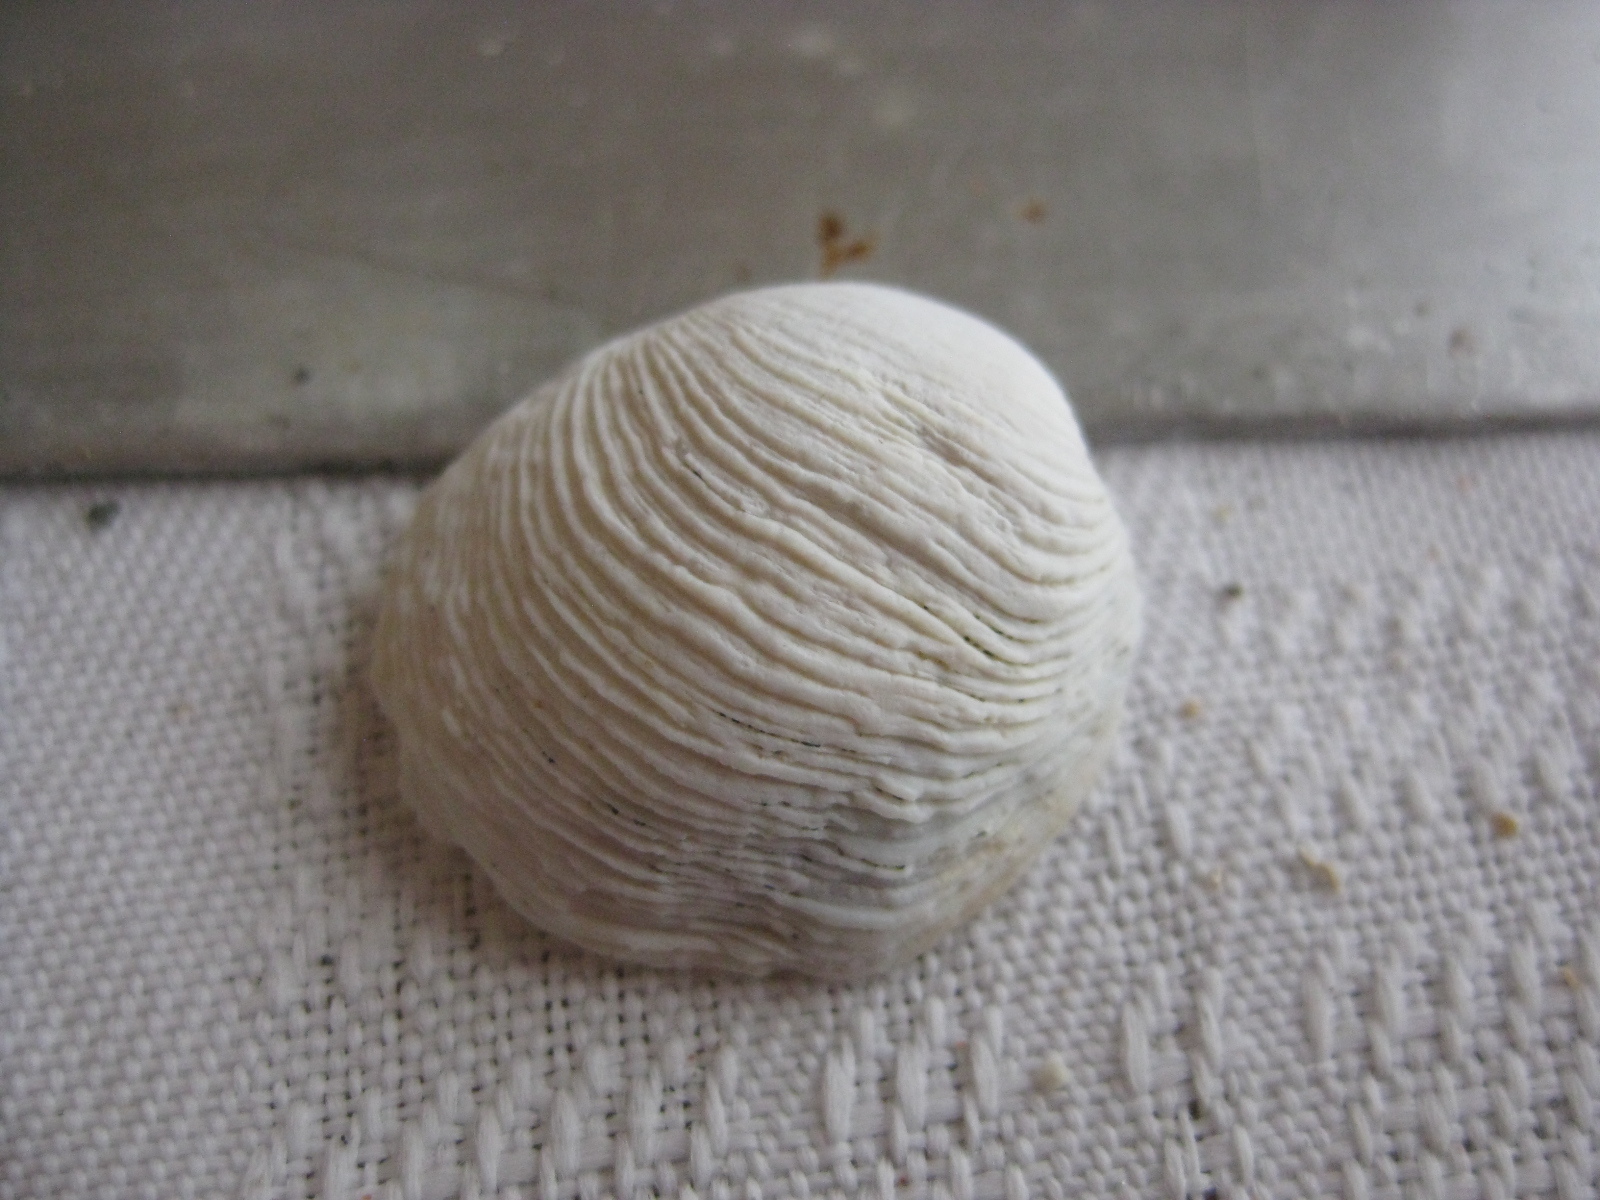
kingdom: Animalia
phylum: Mollusca
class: Bivalvia
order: Venerida
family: Veneridae
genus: Irus
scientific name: Irus reflexus
